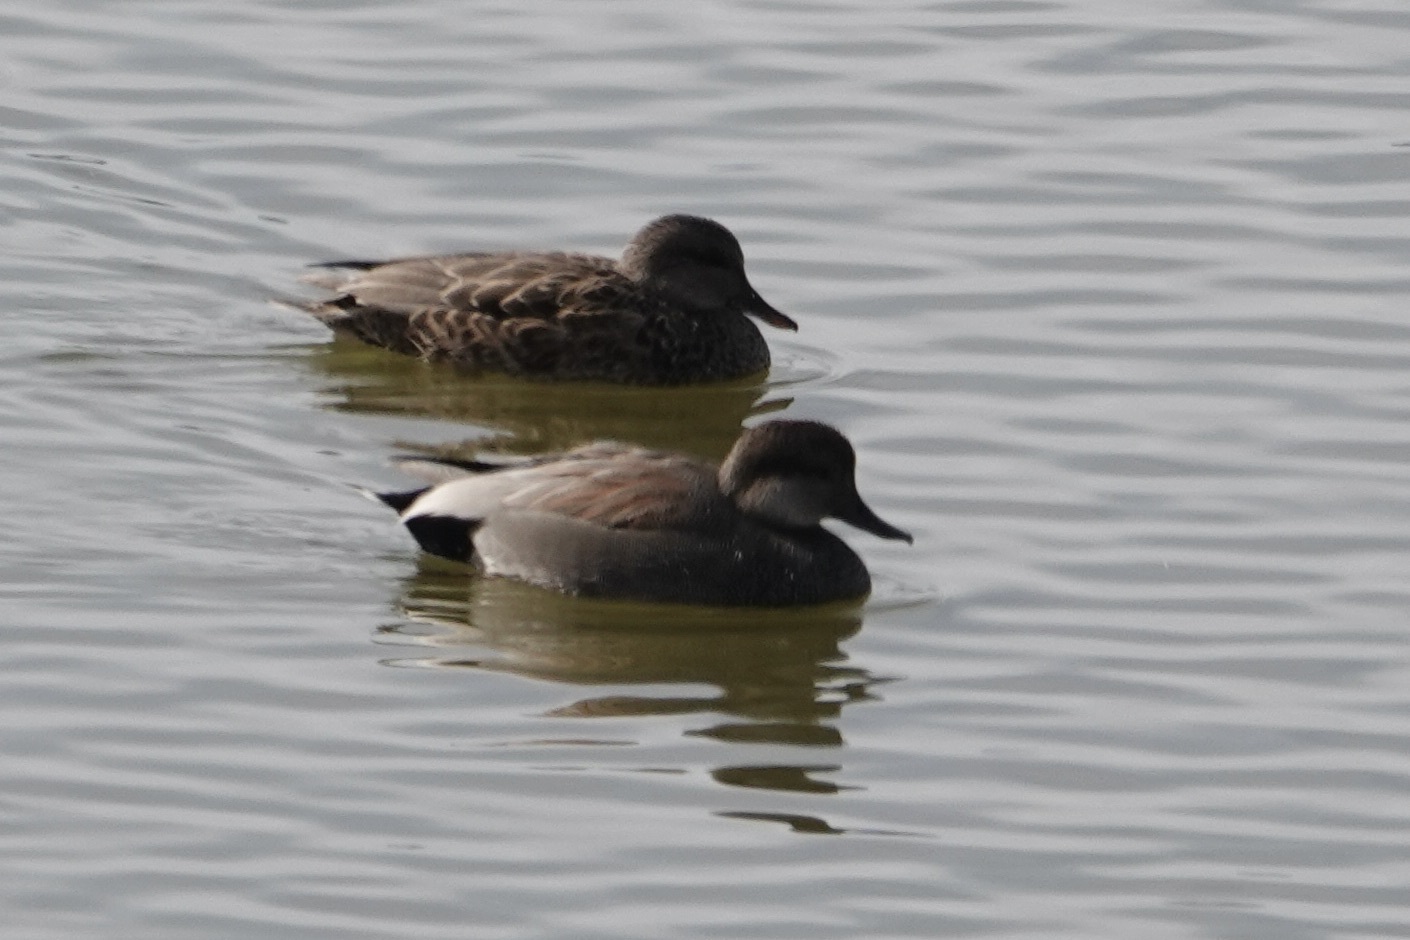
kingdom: Animalia
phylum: Chordata
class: Aves
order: Anseriformes
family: Anatidae
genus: Mareca
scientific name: Mareca strepera
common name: Gadwall
